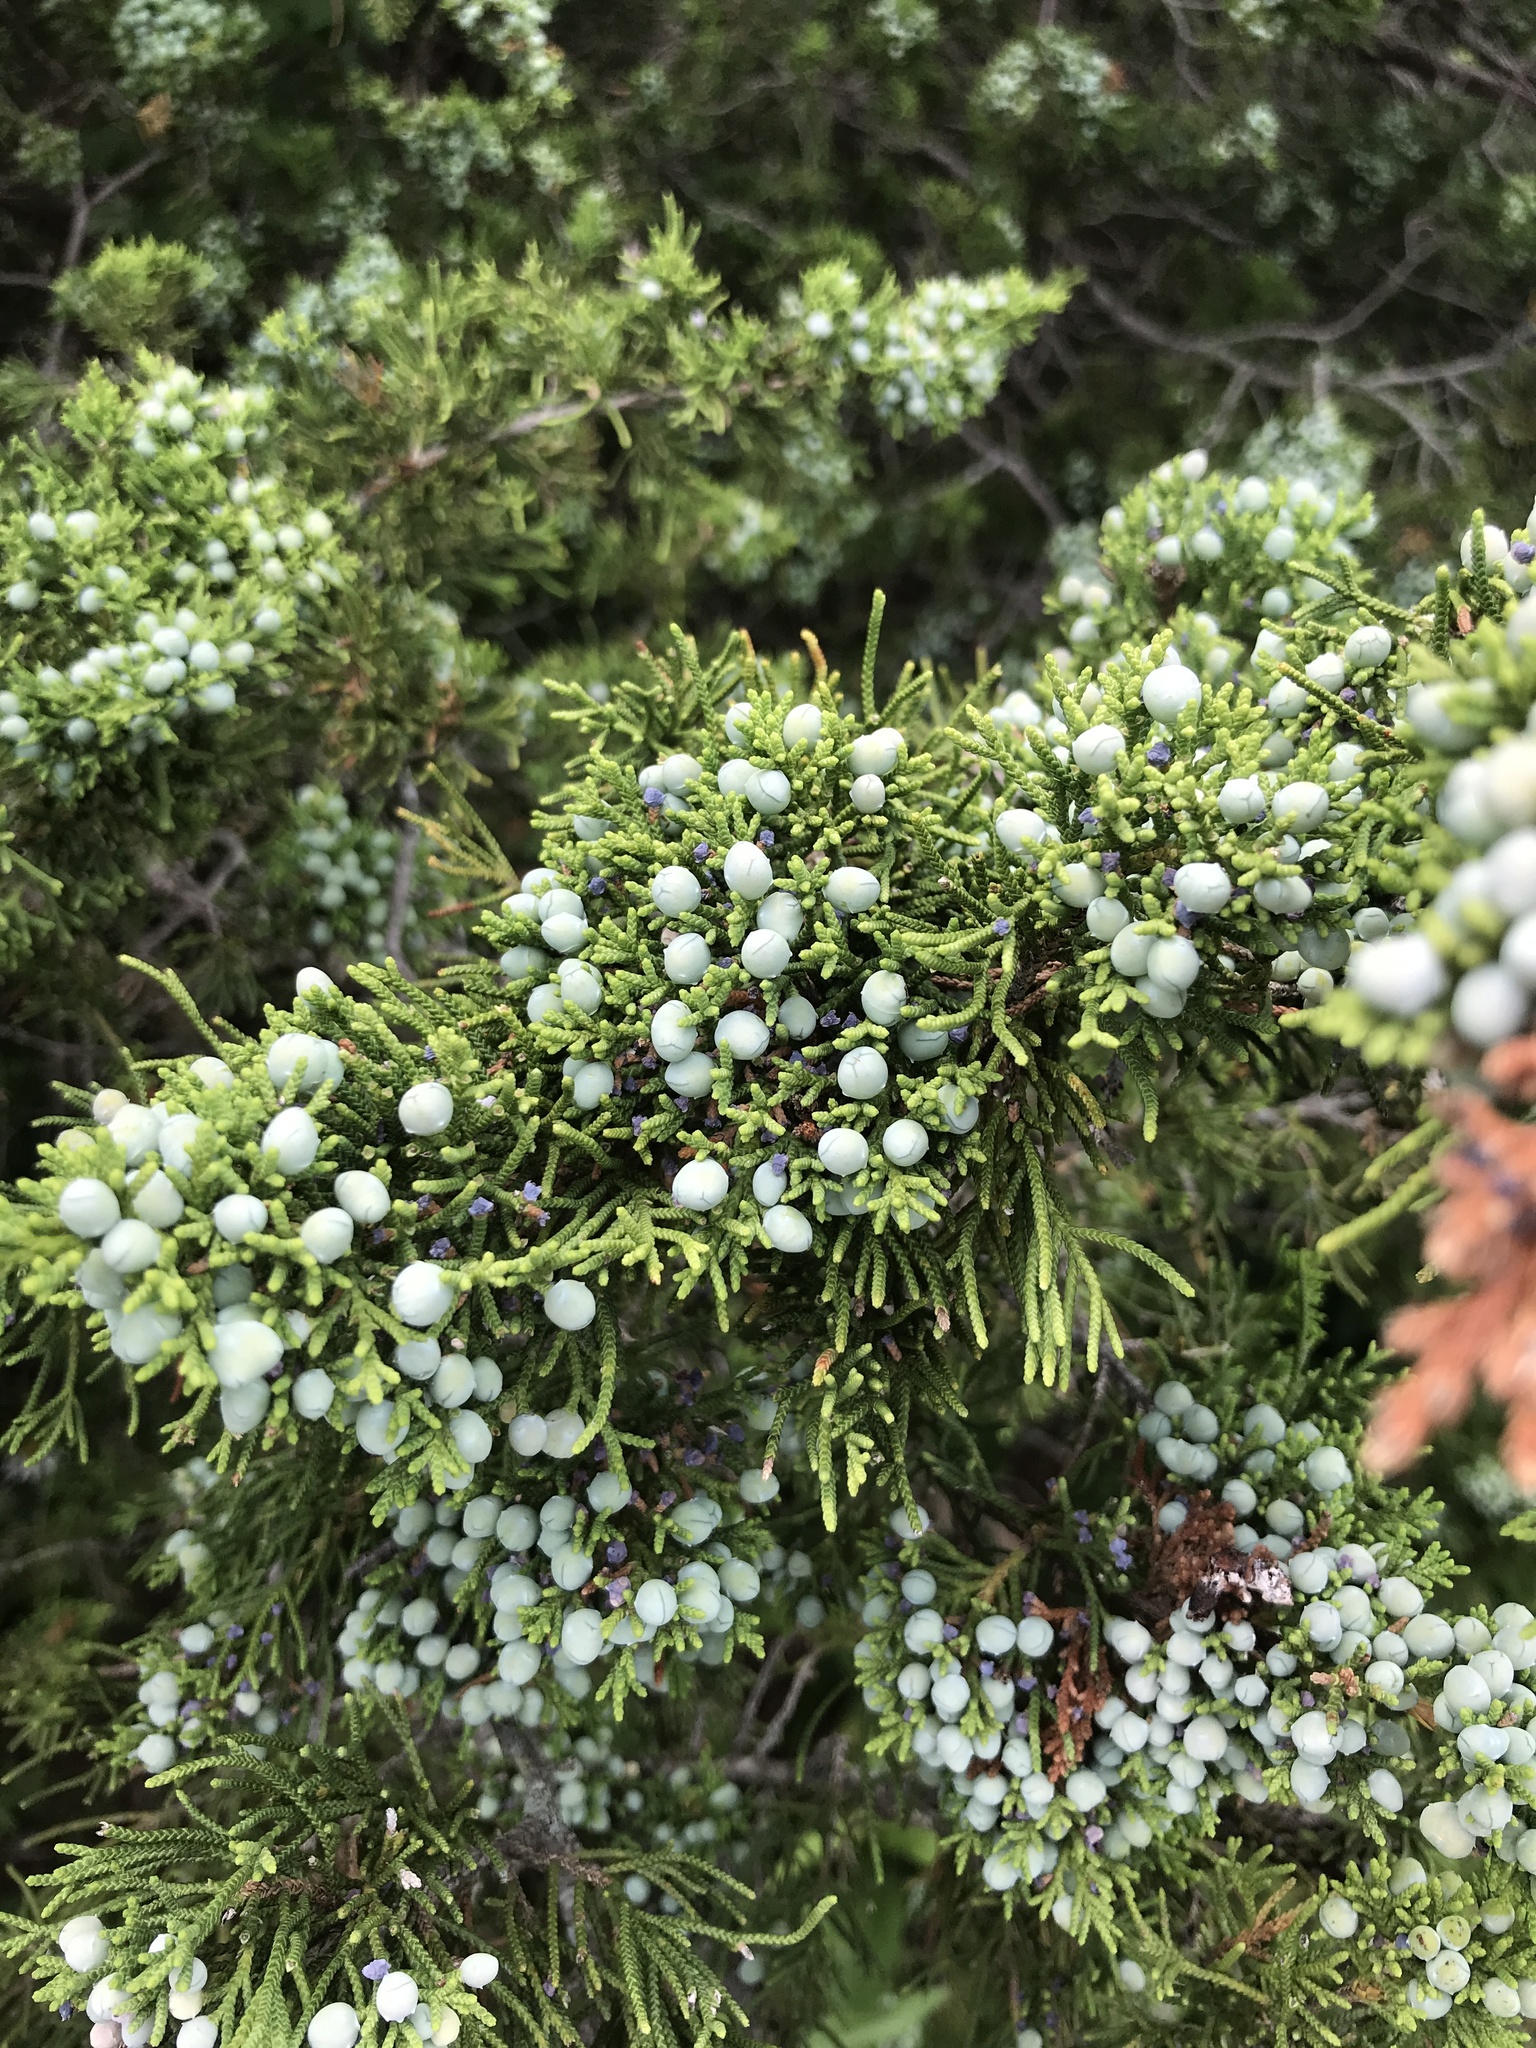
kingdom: Plantae
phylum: Tracheophyta
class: Pinopsida
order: Pinales
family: Cupressaceae
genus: Juniperus
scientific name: Juniperus virginiana
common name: Red juniper
